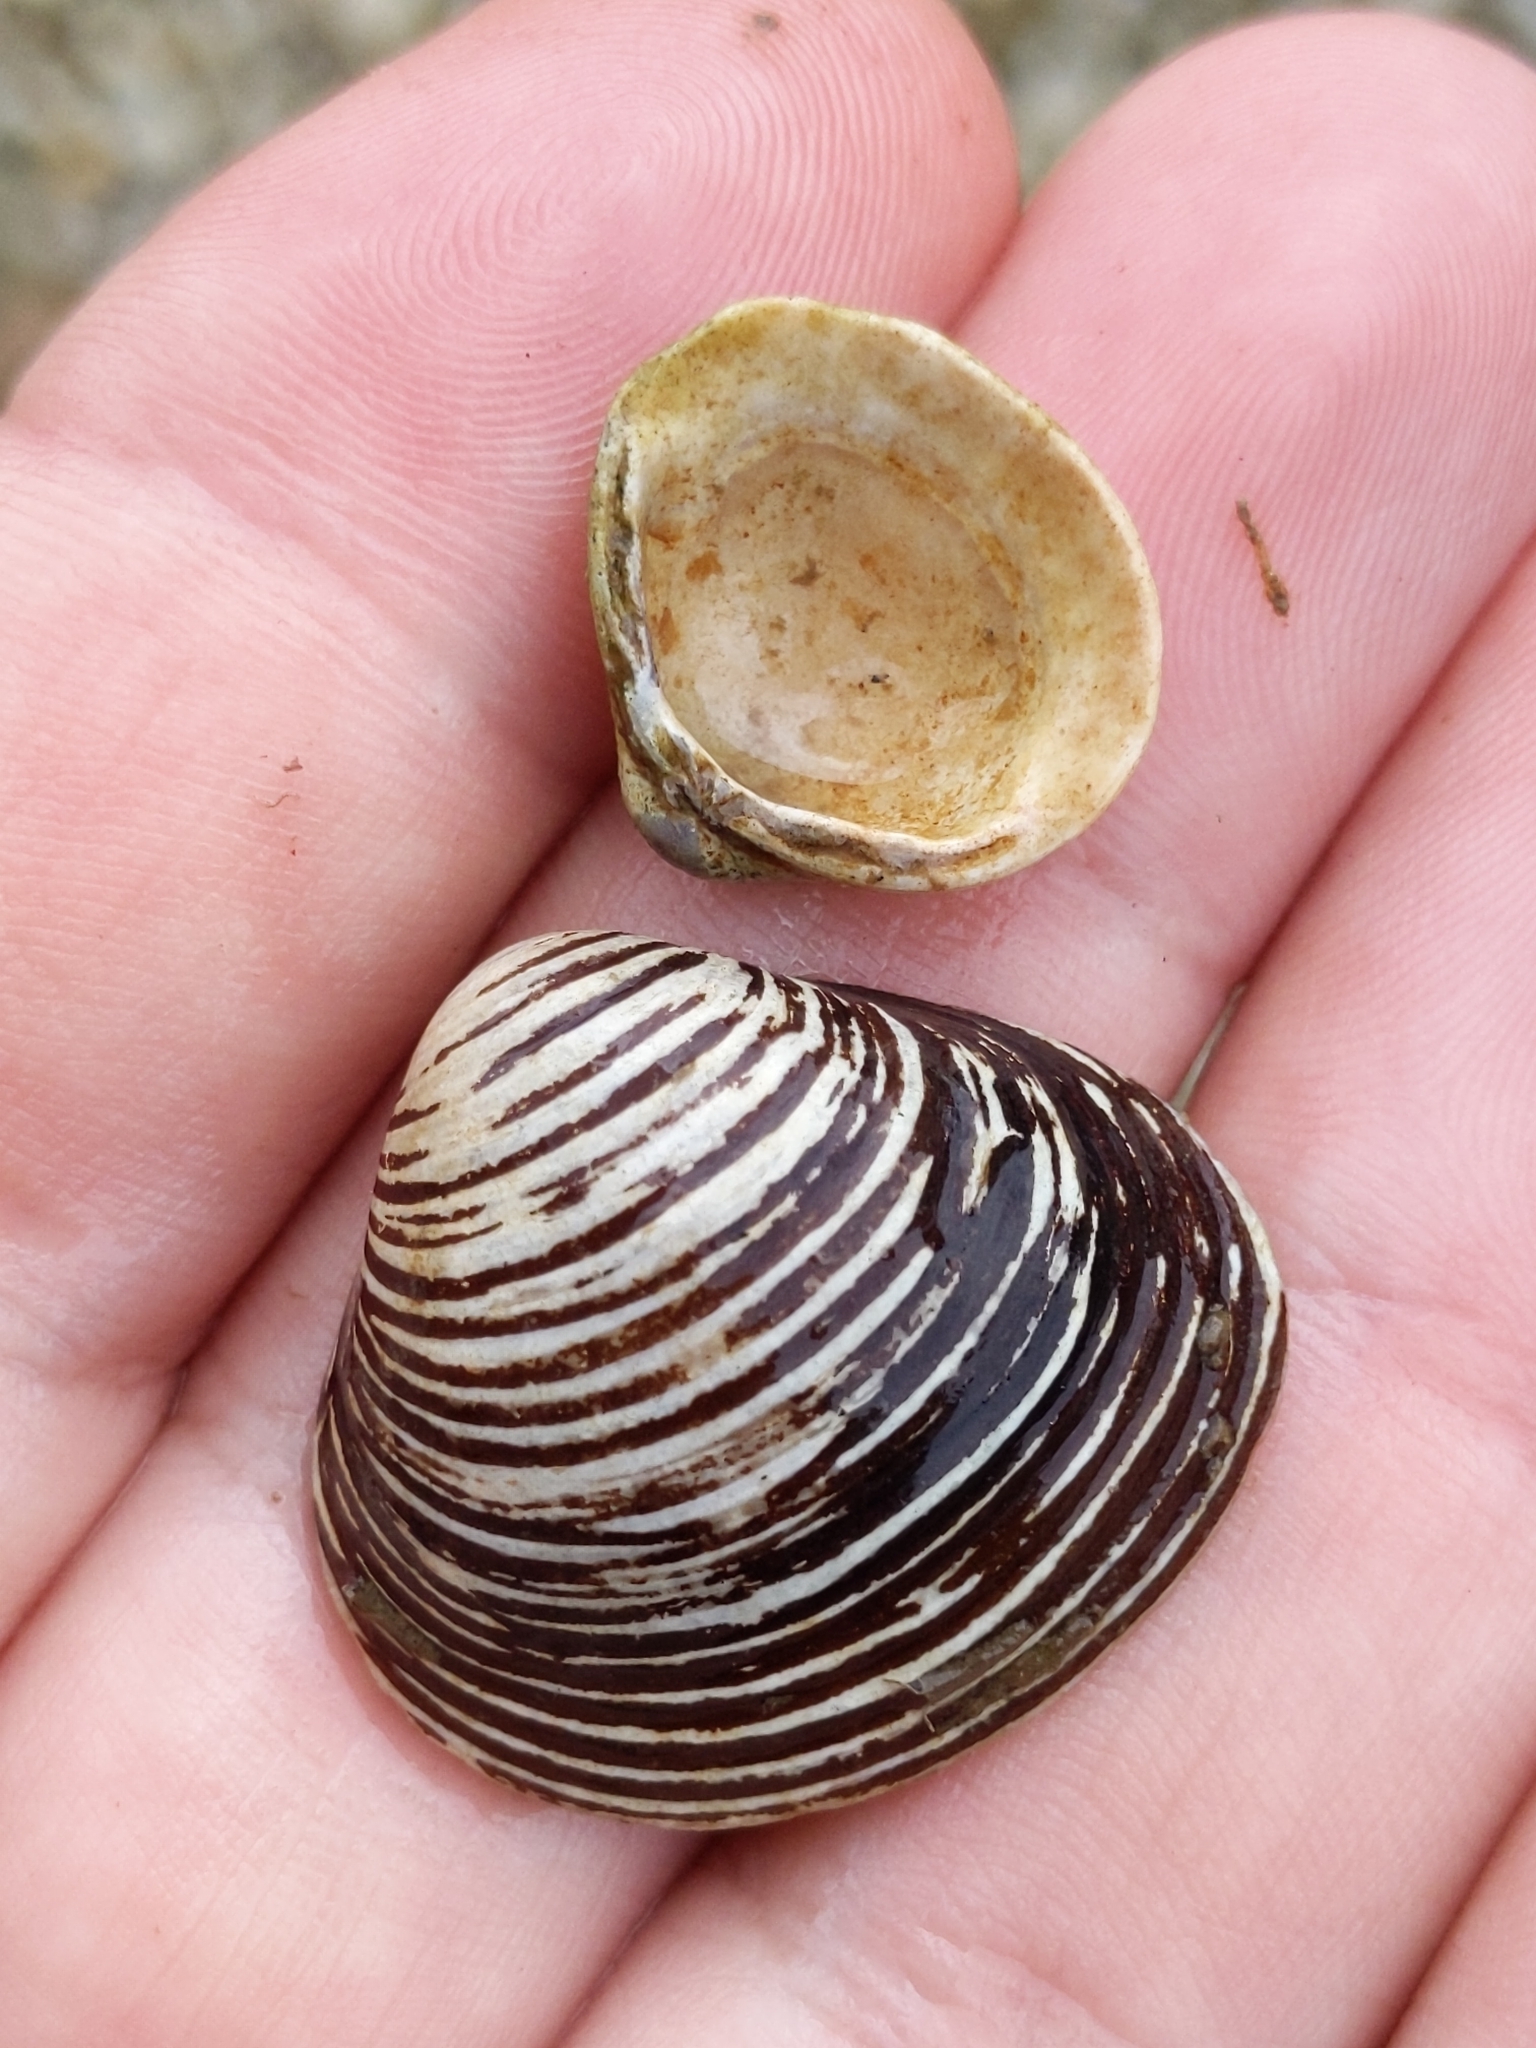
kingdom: Animalia
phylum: Mollusca
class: Bivalvia
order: Venerida
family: Cyrenidae
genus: Corbicula
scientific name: Corbicula fluminea
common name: Asian clam
